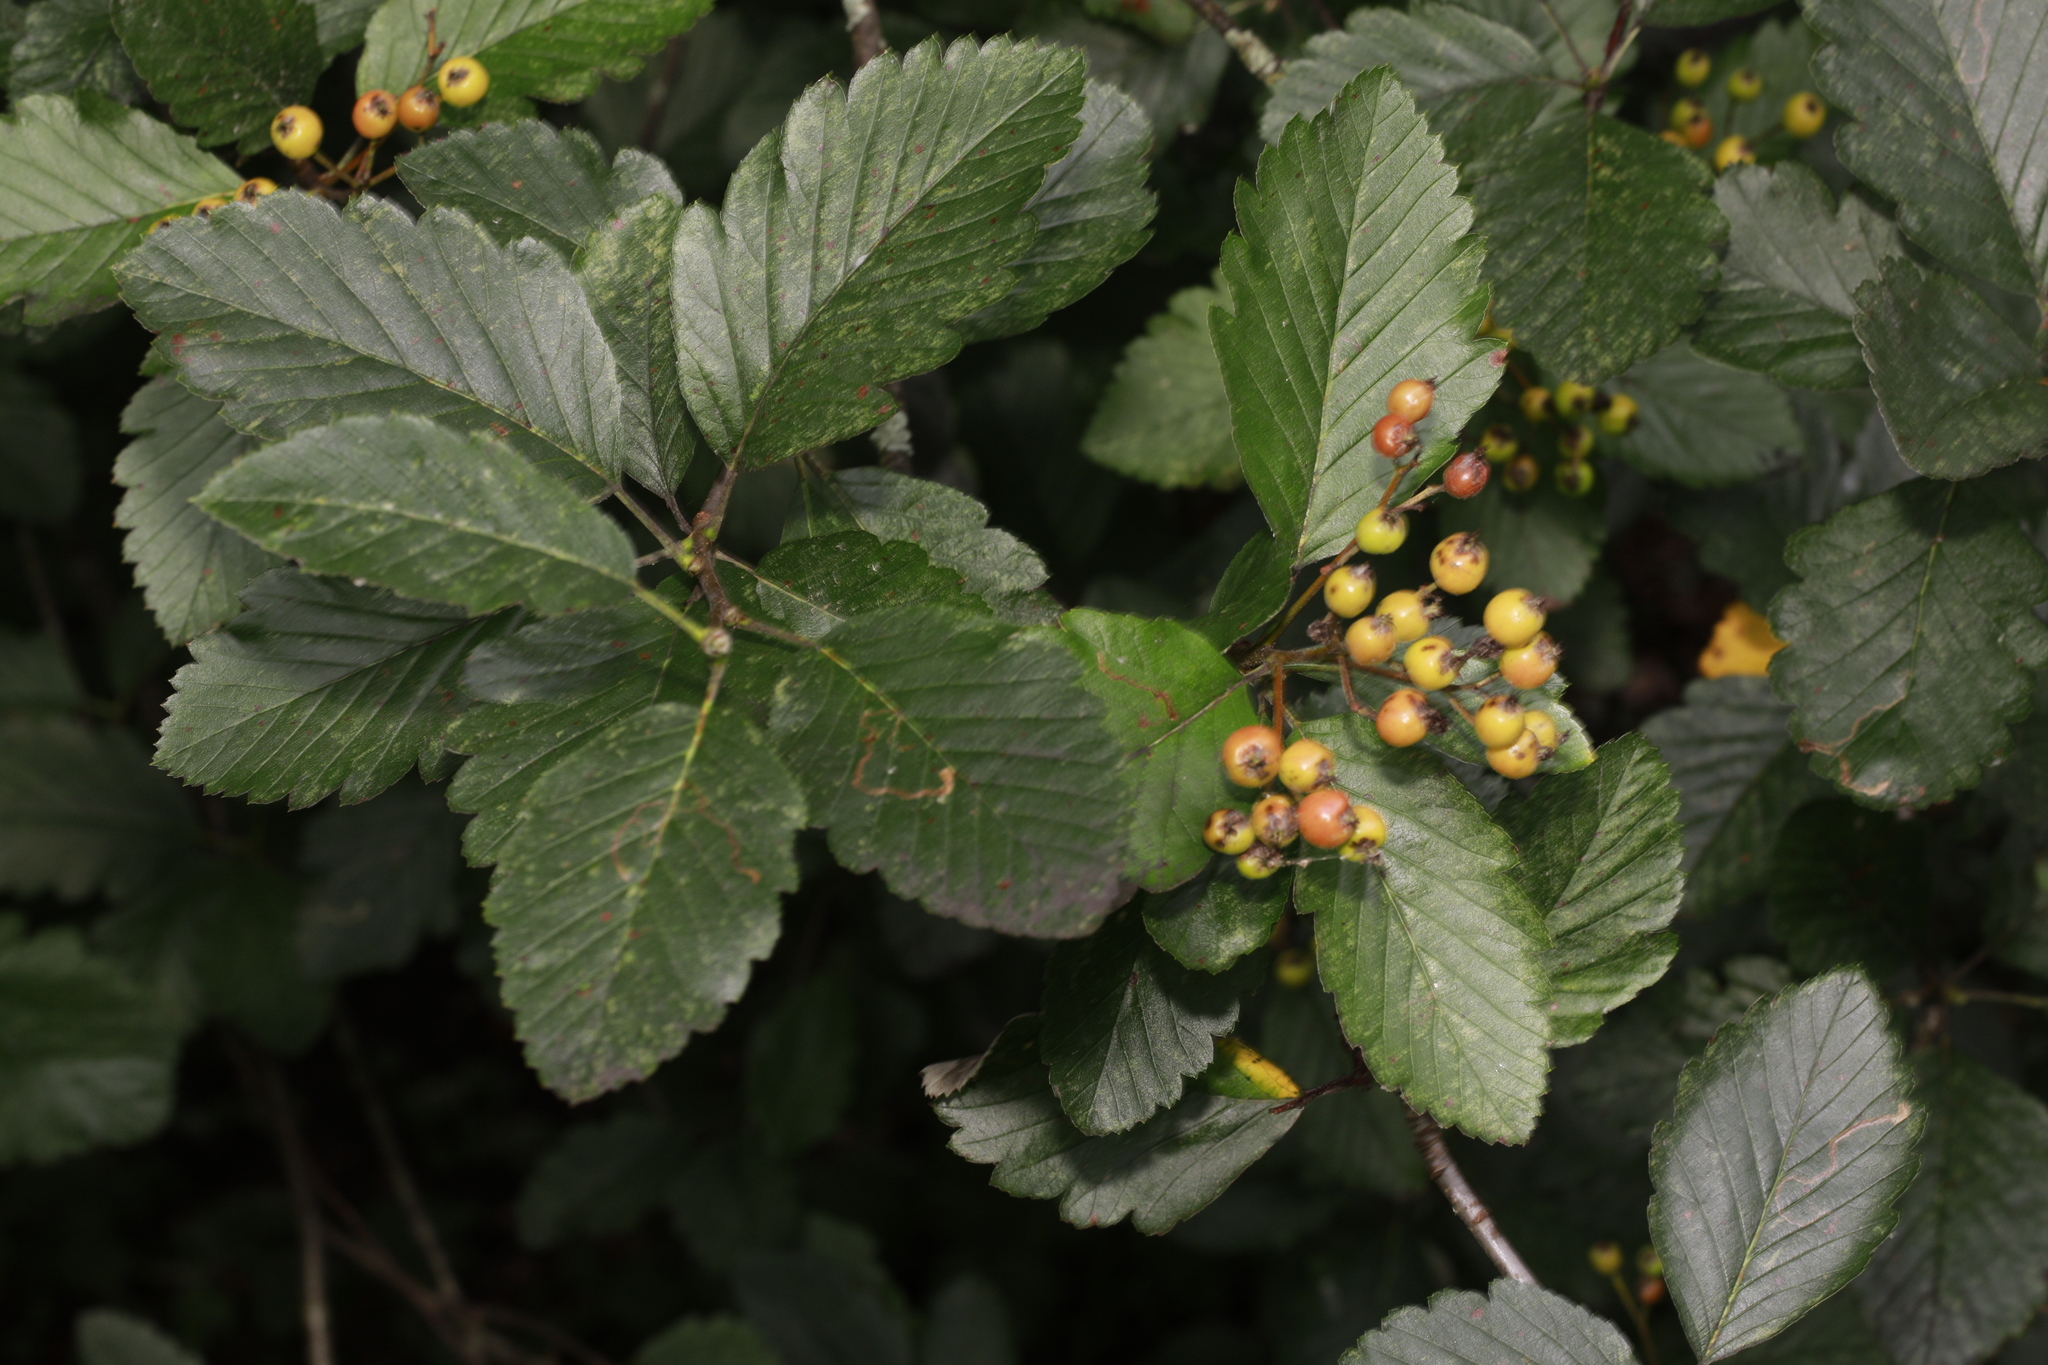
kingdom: Plantae
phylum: Tracheophyta
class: Magnoliopsida
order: Rosales
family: Rosaceae
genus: Scandosorbus
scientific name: Scandosorbus intermedia
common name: Swedish whitebeam
